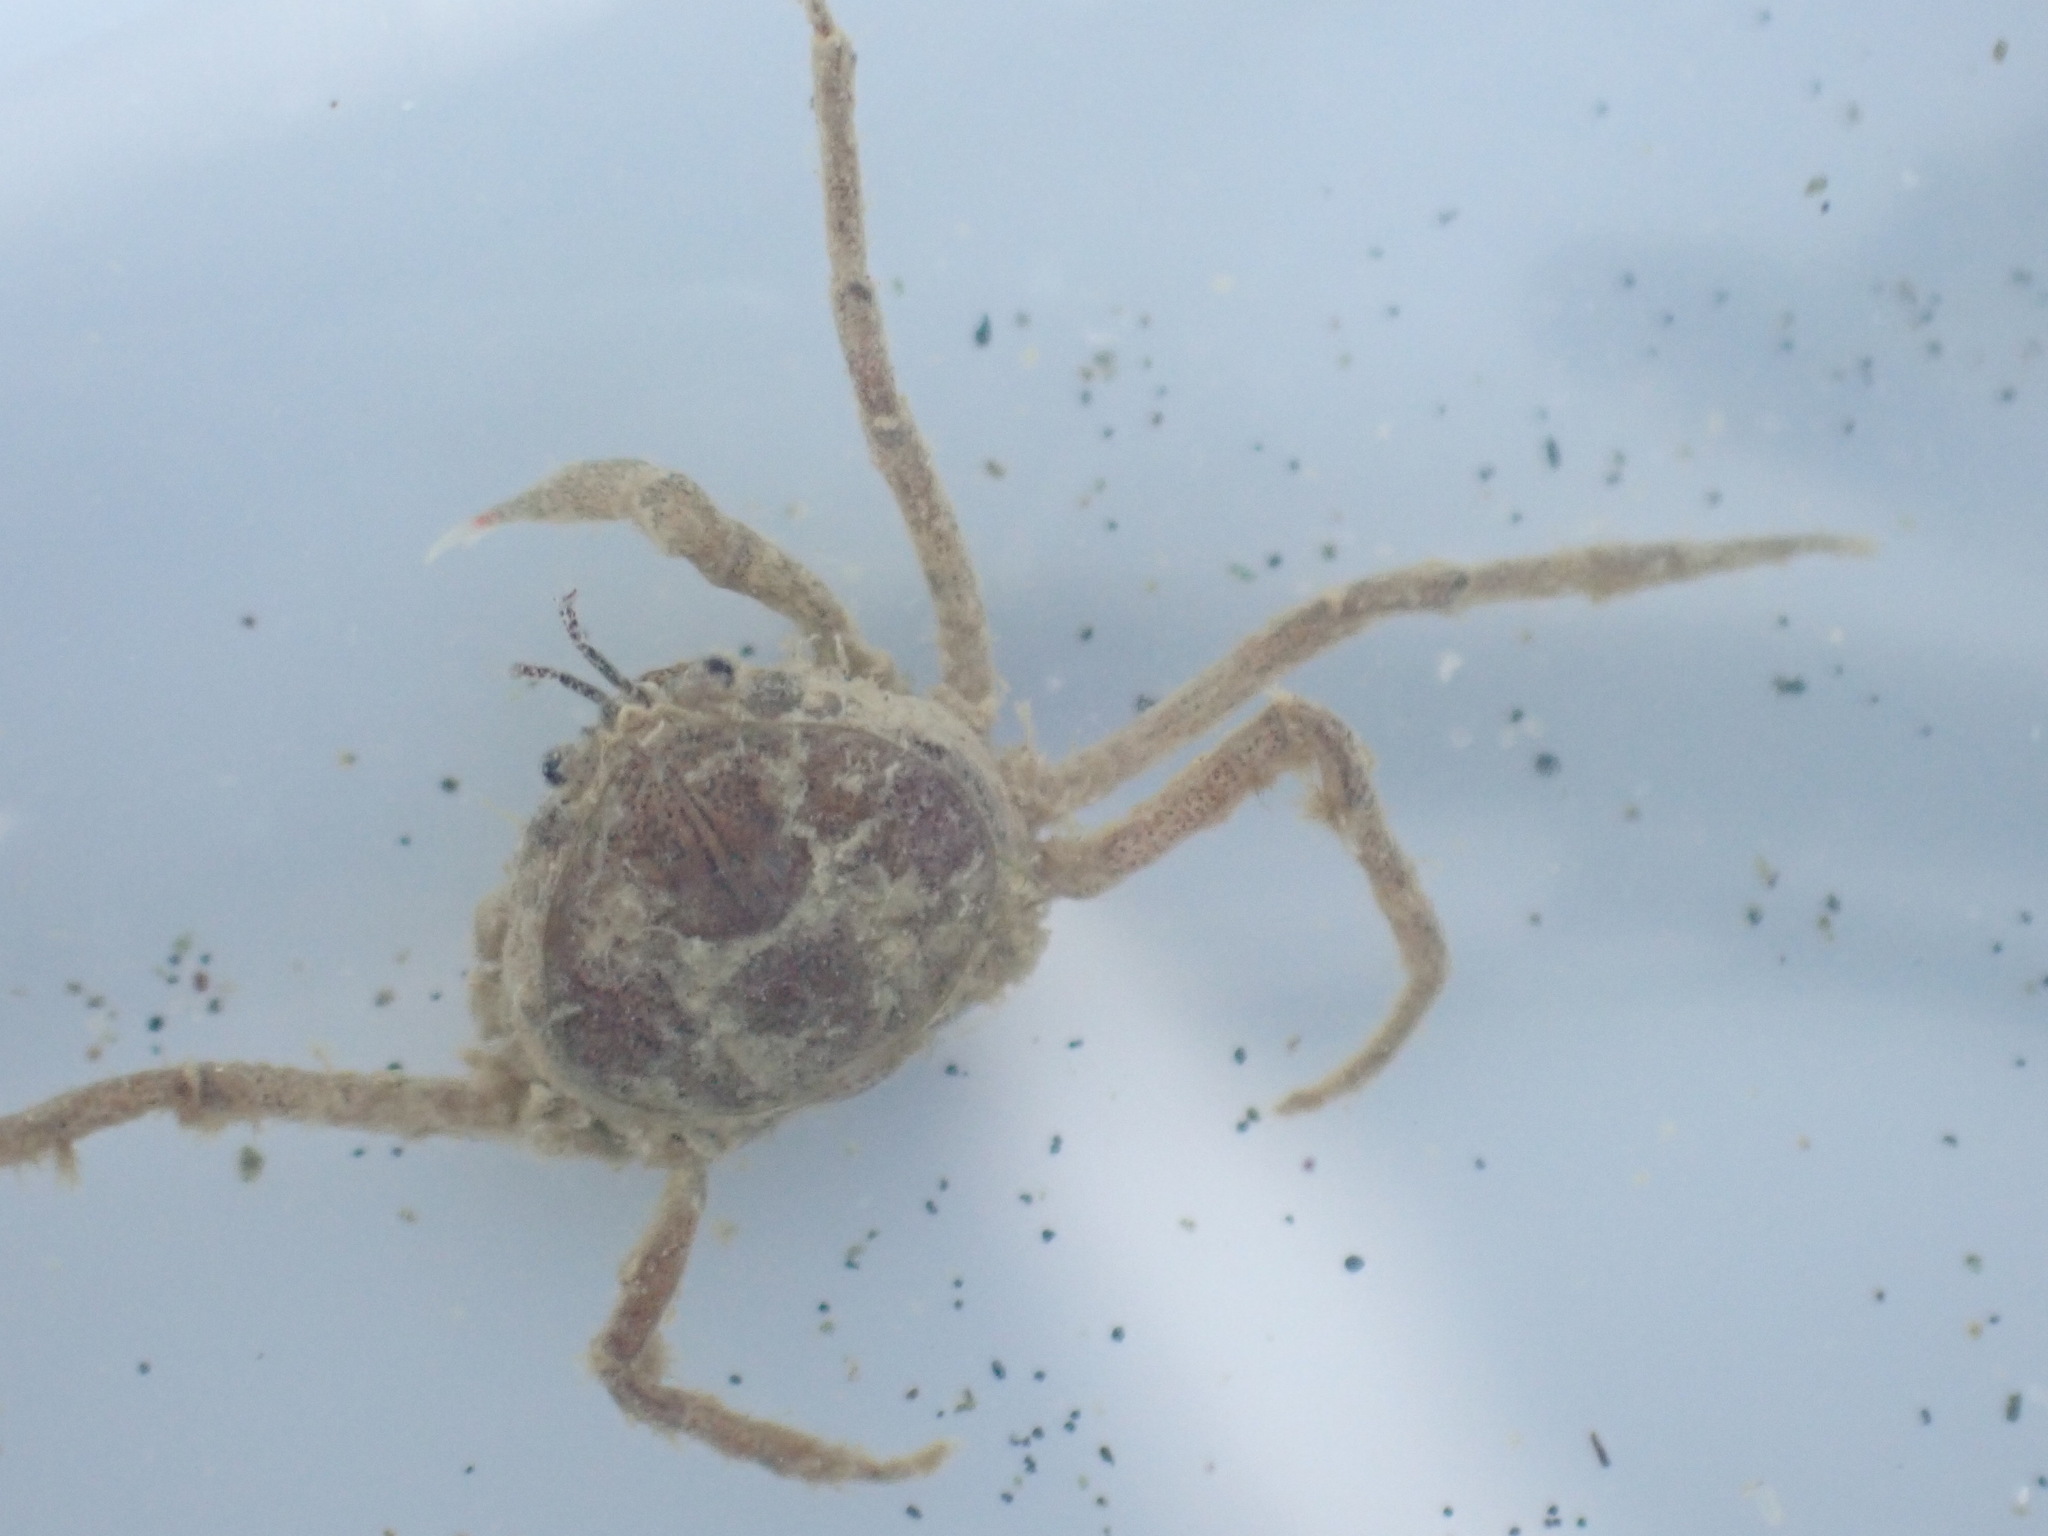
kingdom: Animalia
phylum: Arthropoda
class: Malacostraca
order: Decapoda
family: Hymenosomatidae
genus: Halicarcinus
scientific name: Halicarcinus varius
